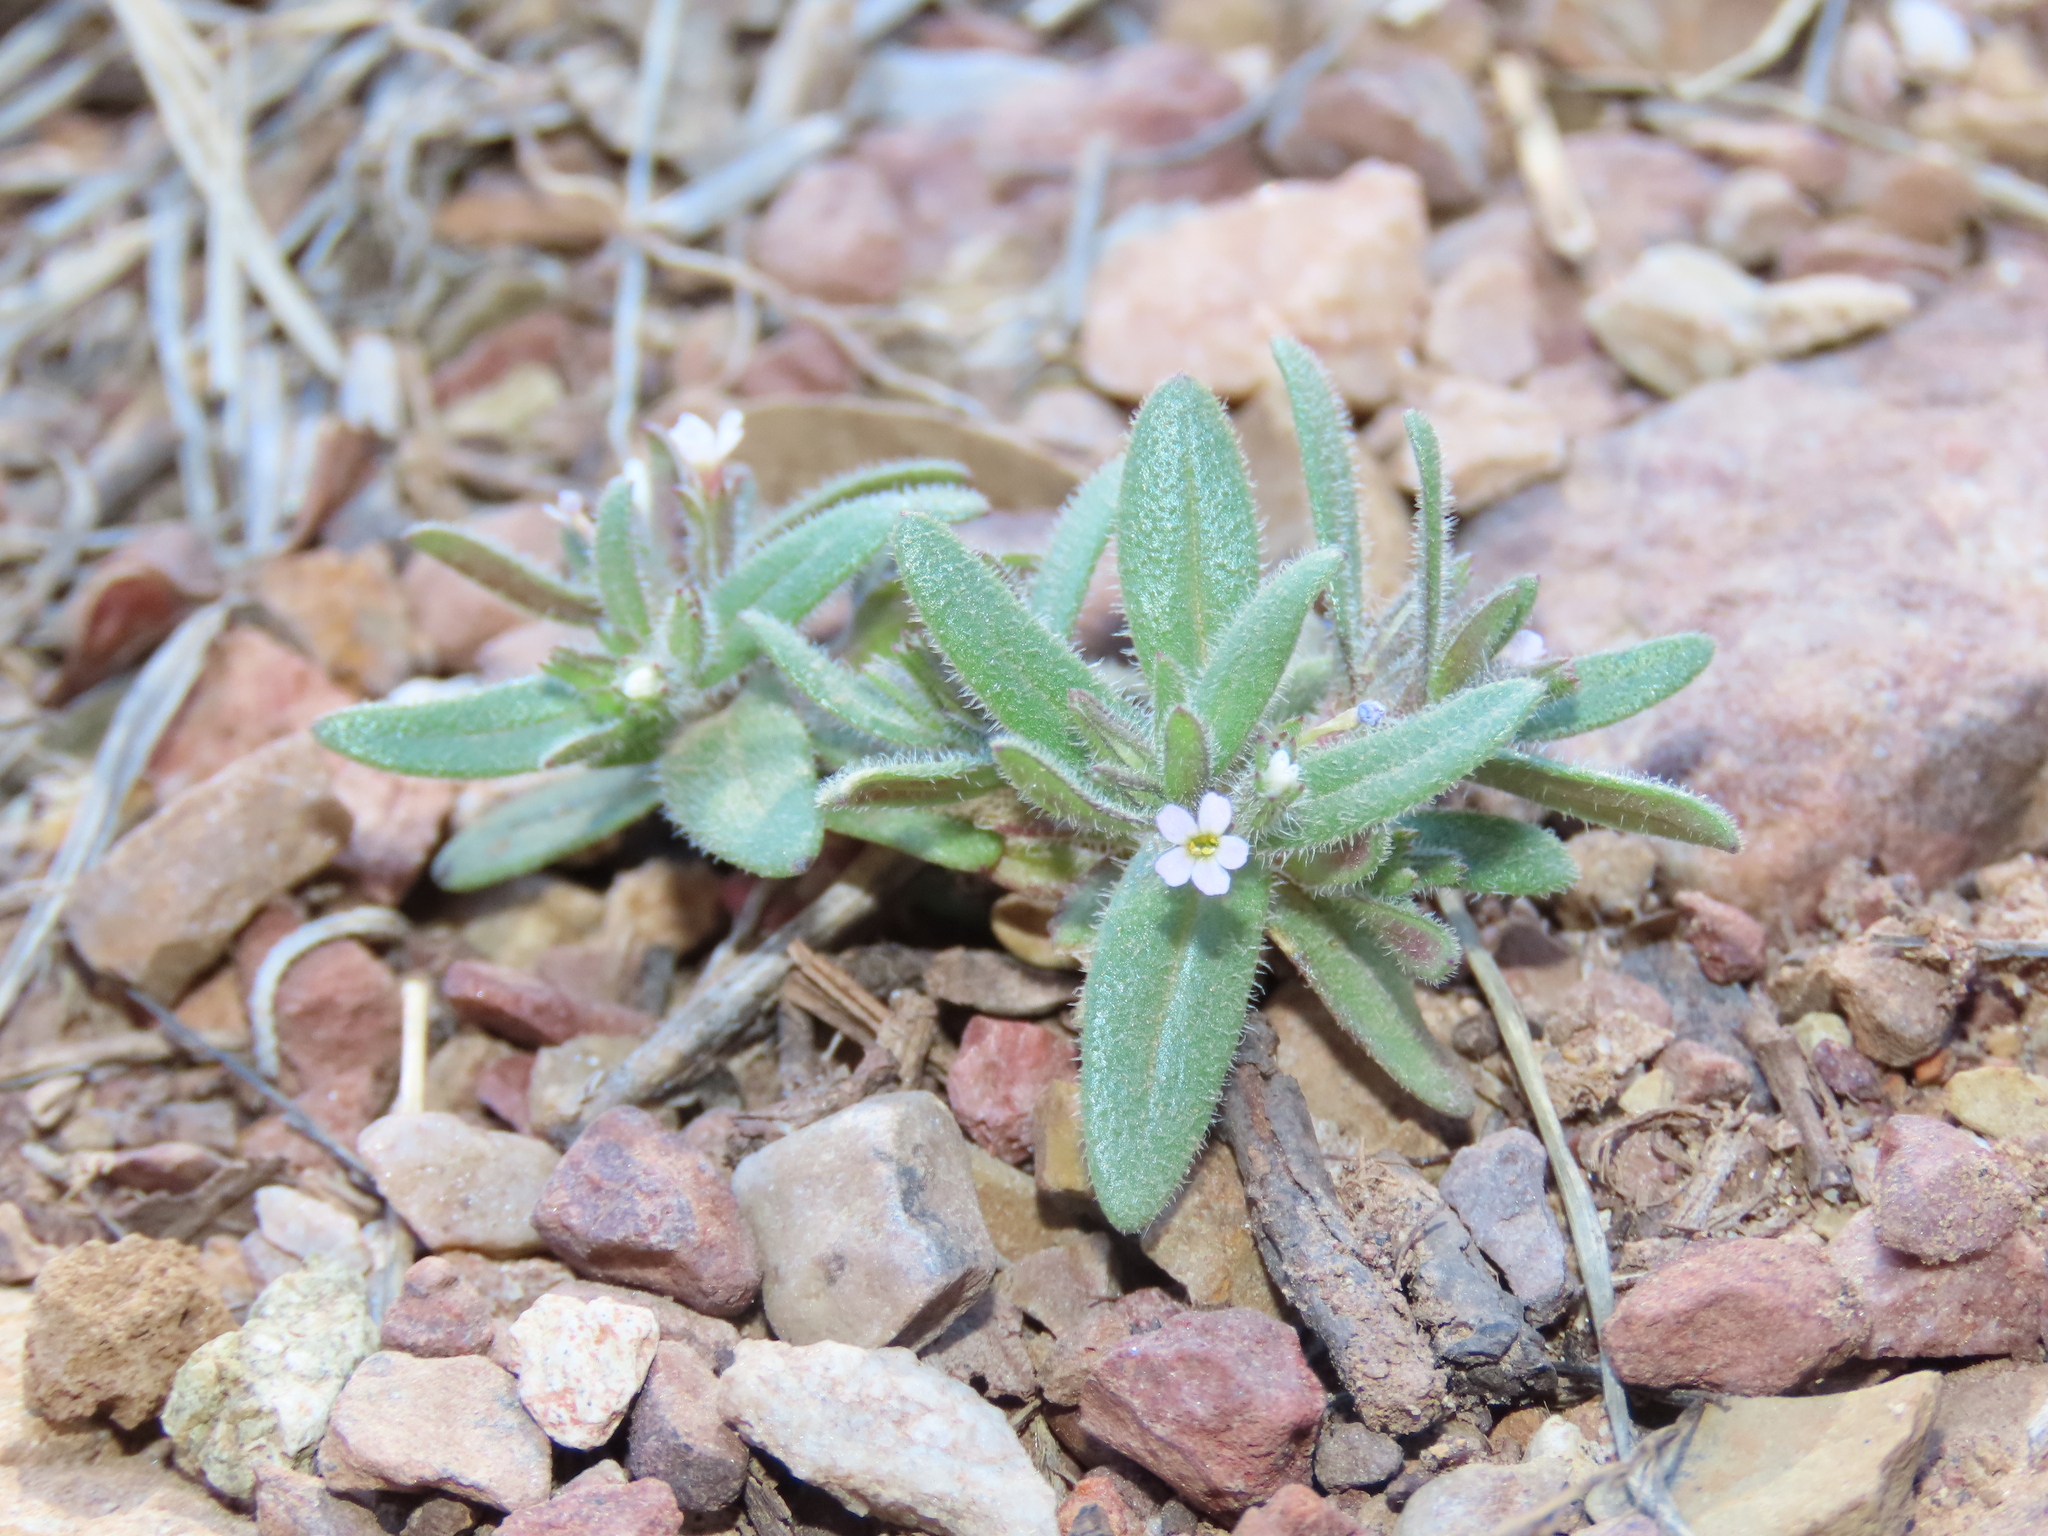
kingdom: Plantae
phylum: Tracheophyta
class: Magnoliopsida
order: Ericales
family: Polemoniaceae
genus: Phlox
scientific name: Phlox gracilis
